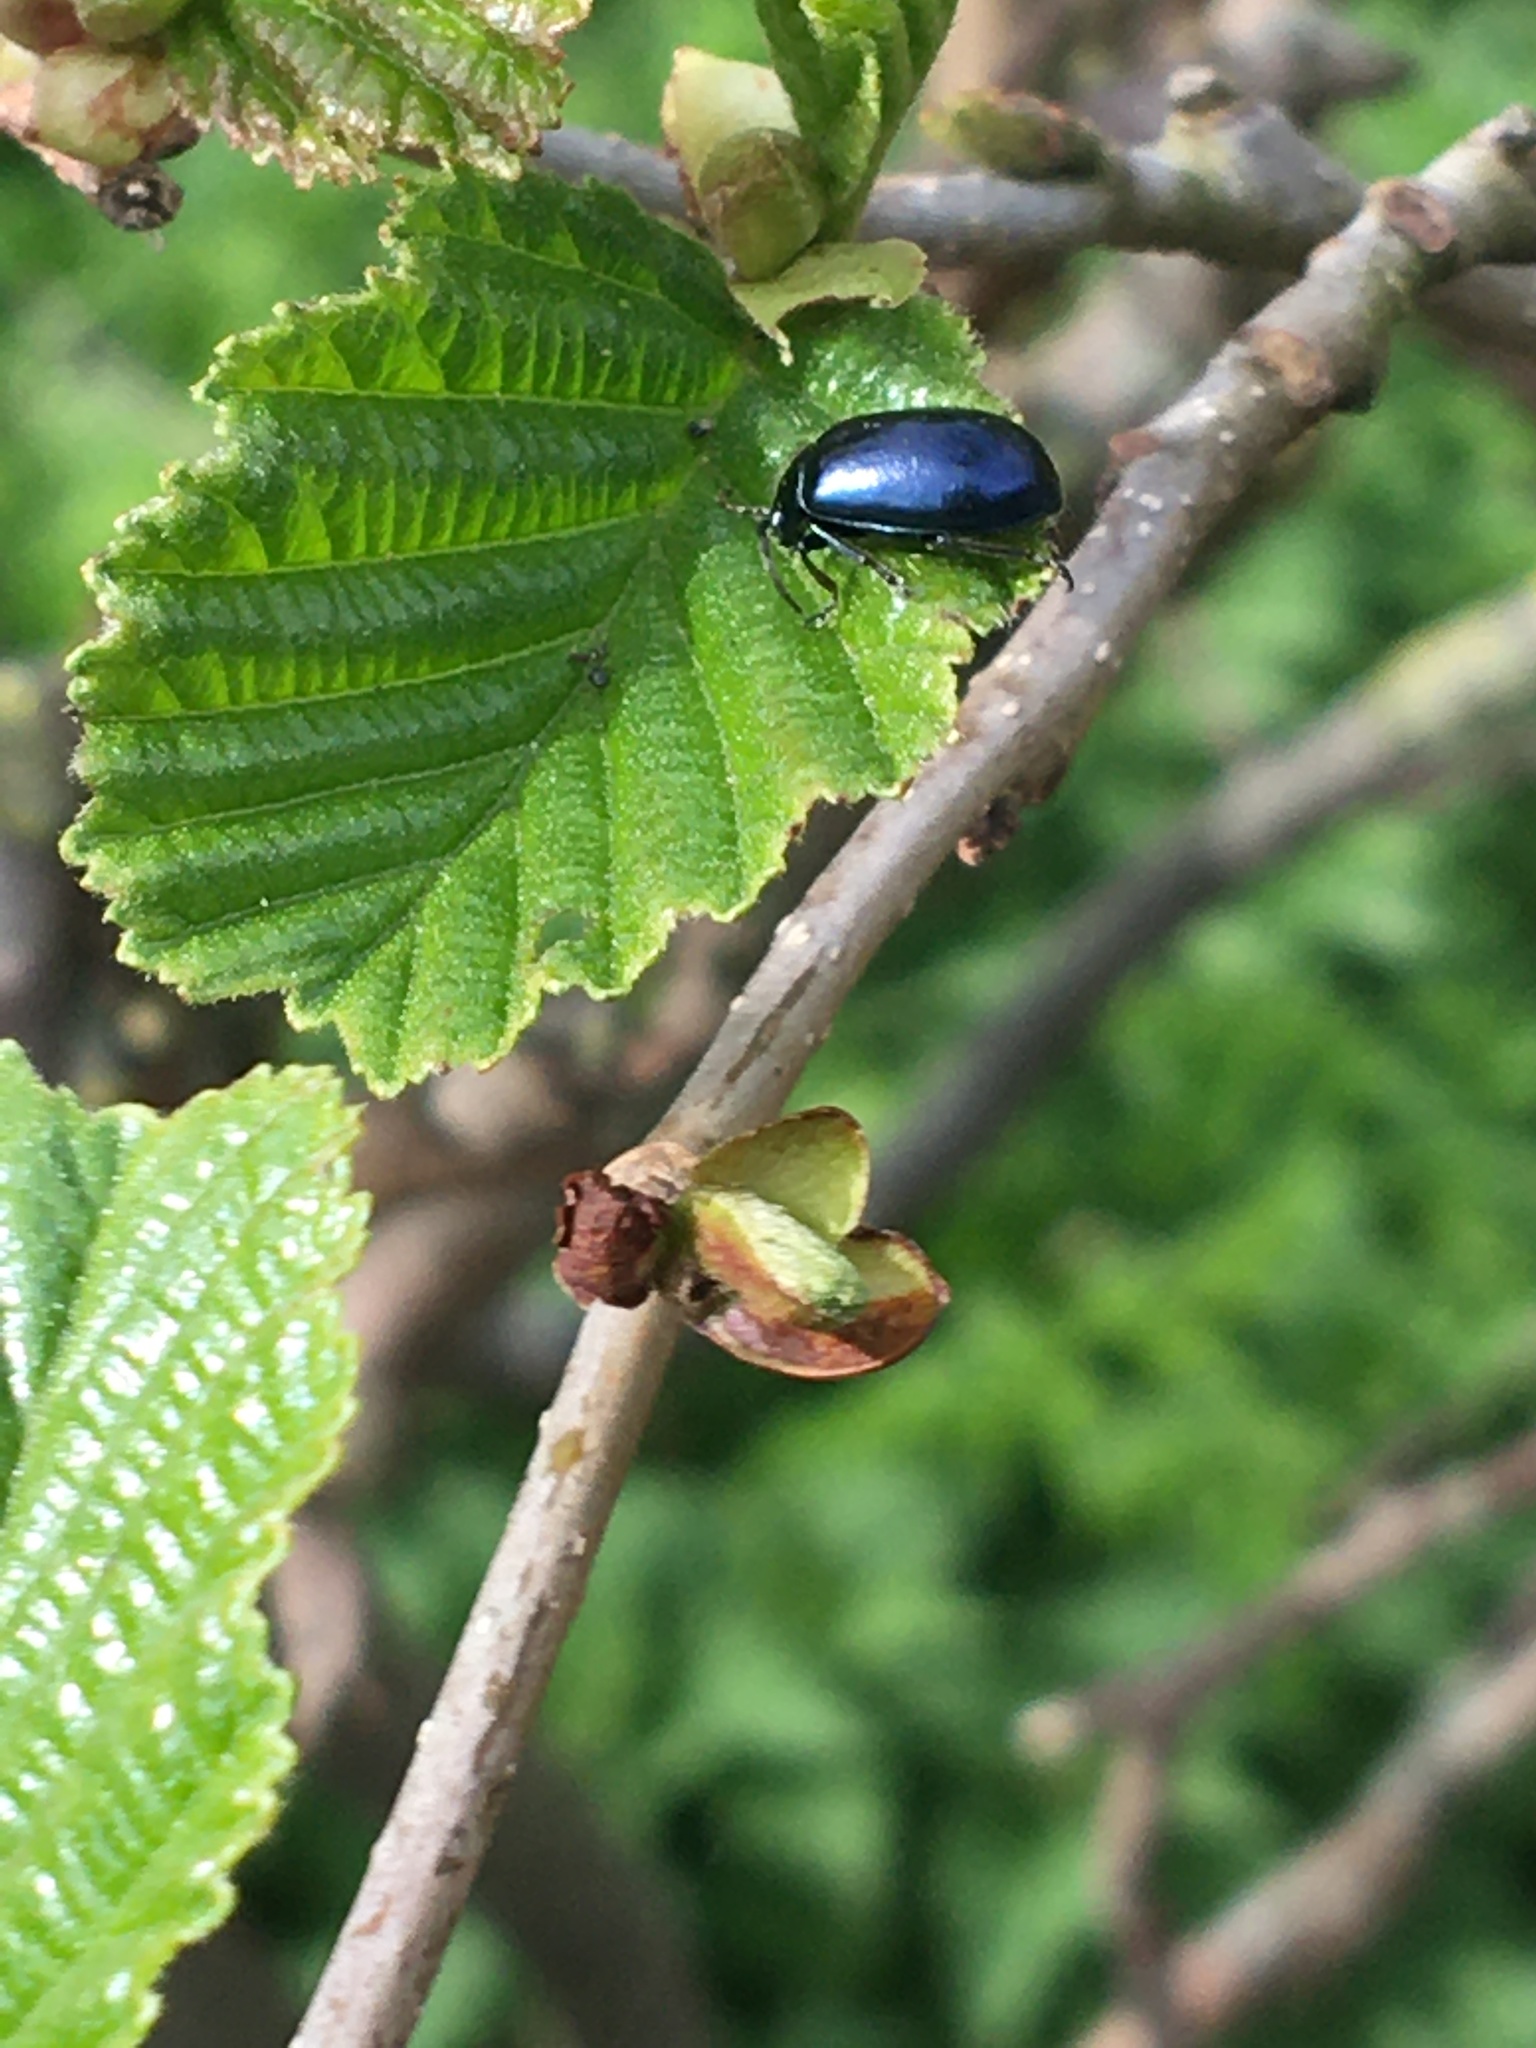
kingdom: Animalia
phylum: Arthropoda
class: Insecta
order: Coleoptera
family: Chrysomelidae
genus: Agelastica
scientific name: Agelastica alni
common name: Alder leaf beetle
